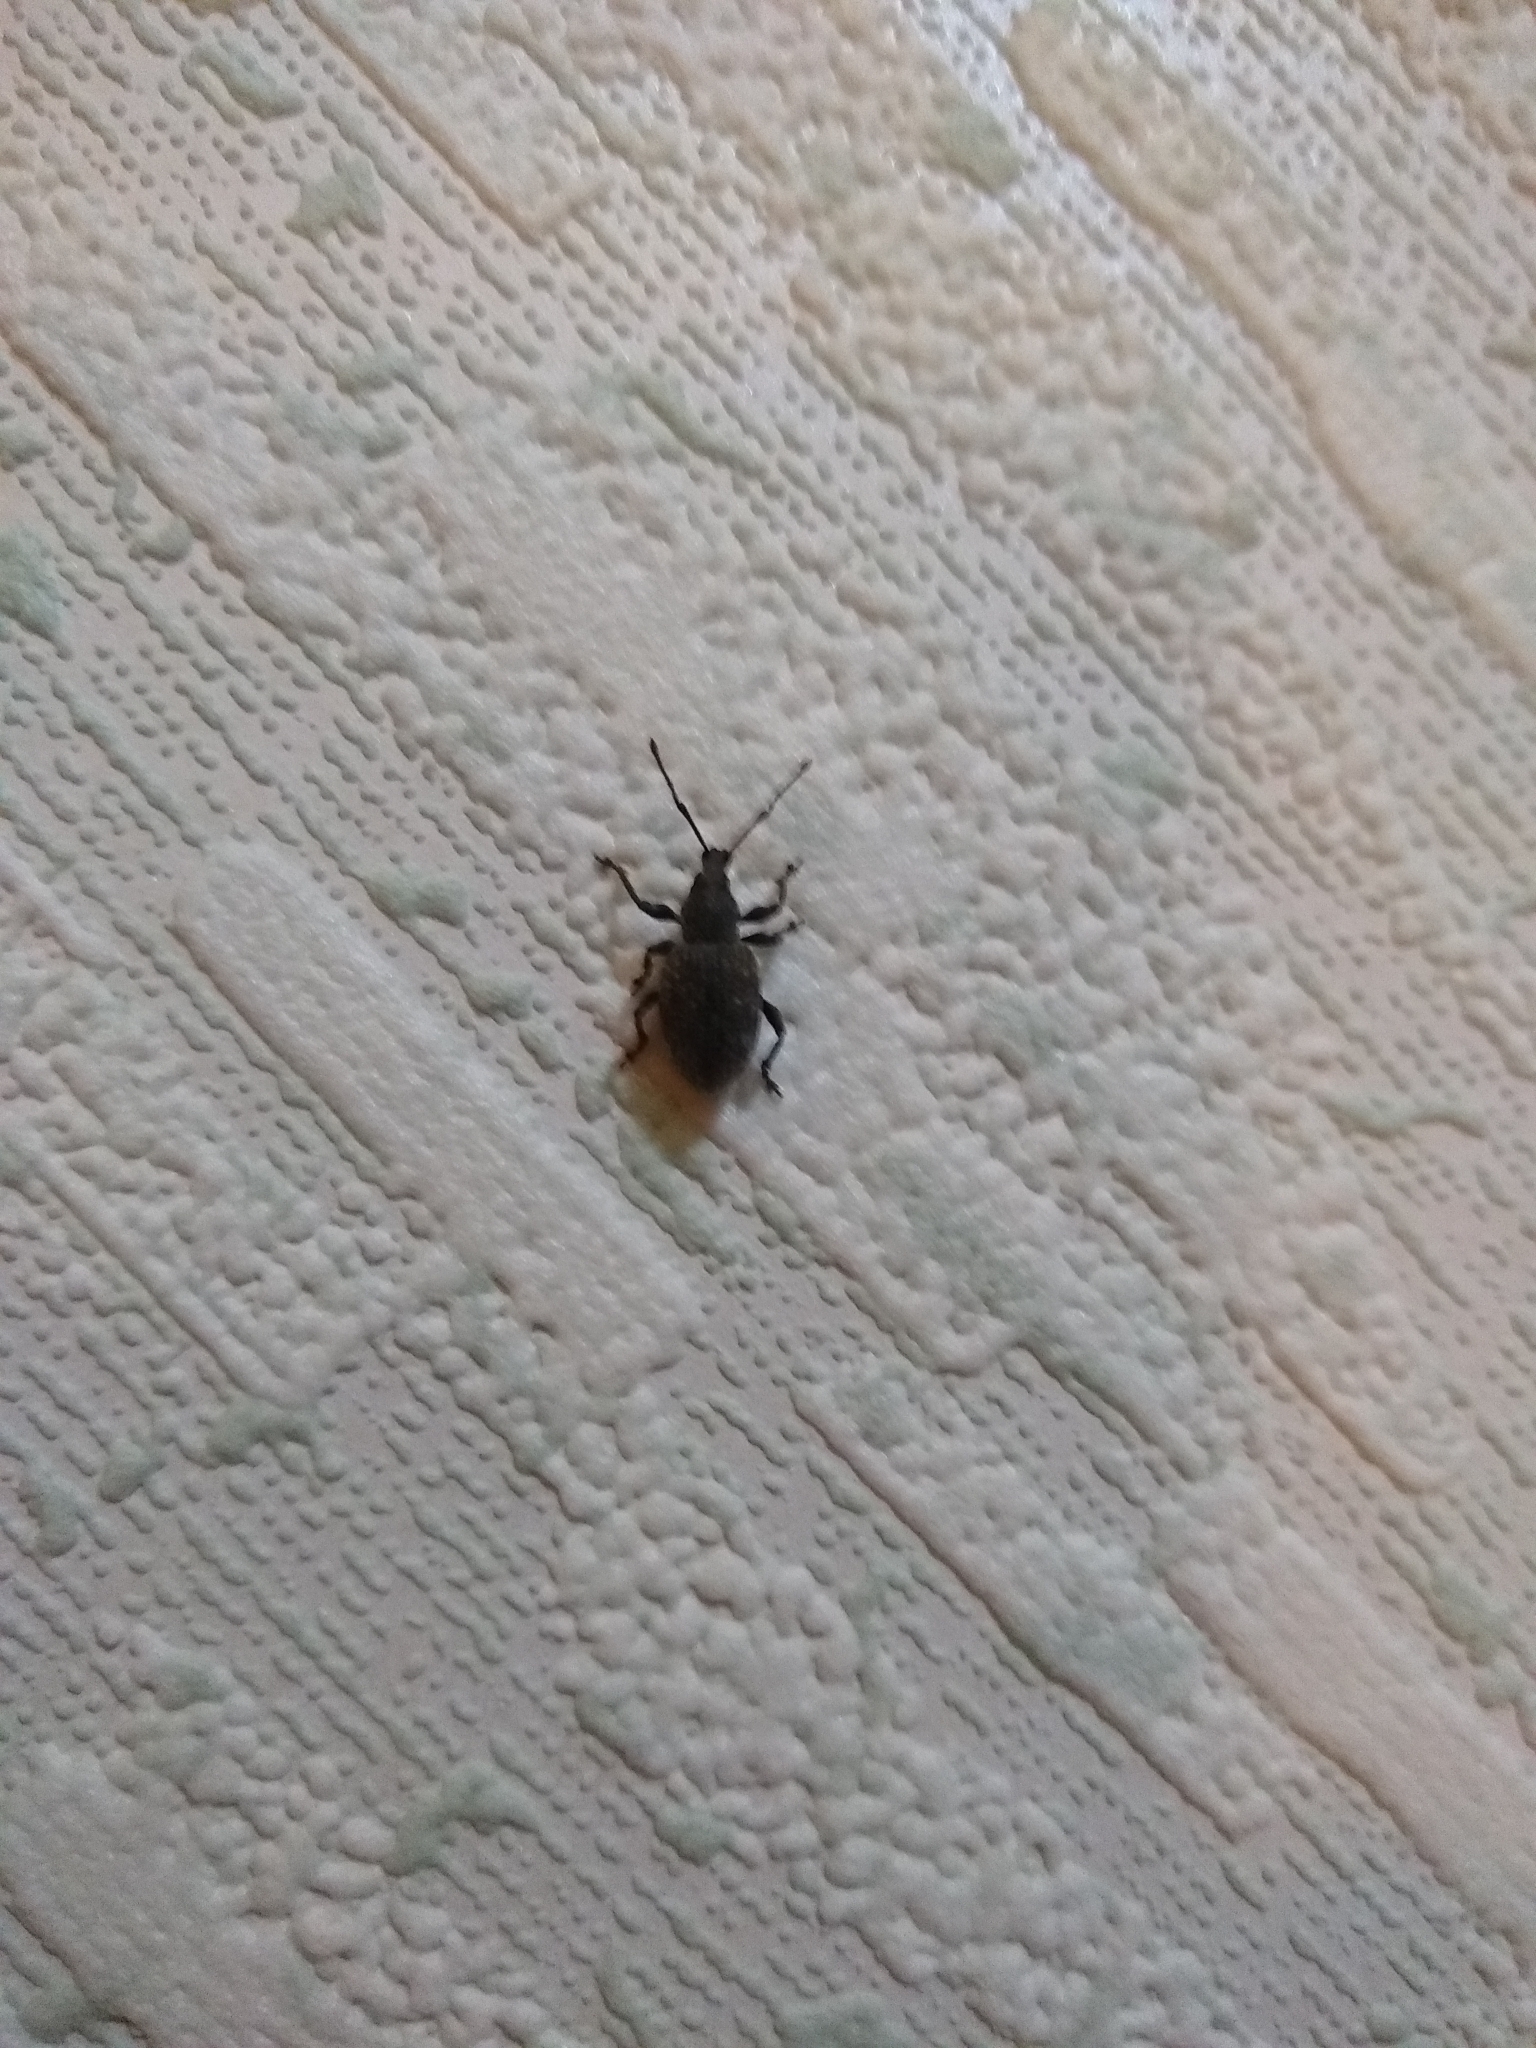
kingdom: Animalia
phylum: Arthropoda
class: Insecta
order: Coleoptera
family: Curculionidae
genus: Otiorhynchus
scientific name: Otiorhynchus sulcatus
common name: Black vine weevil
